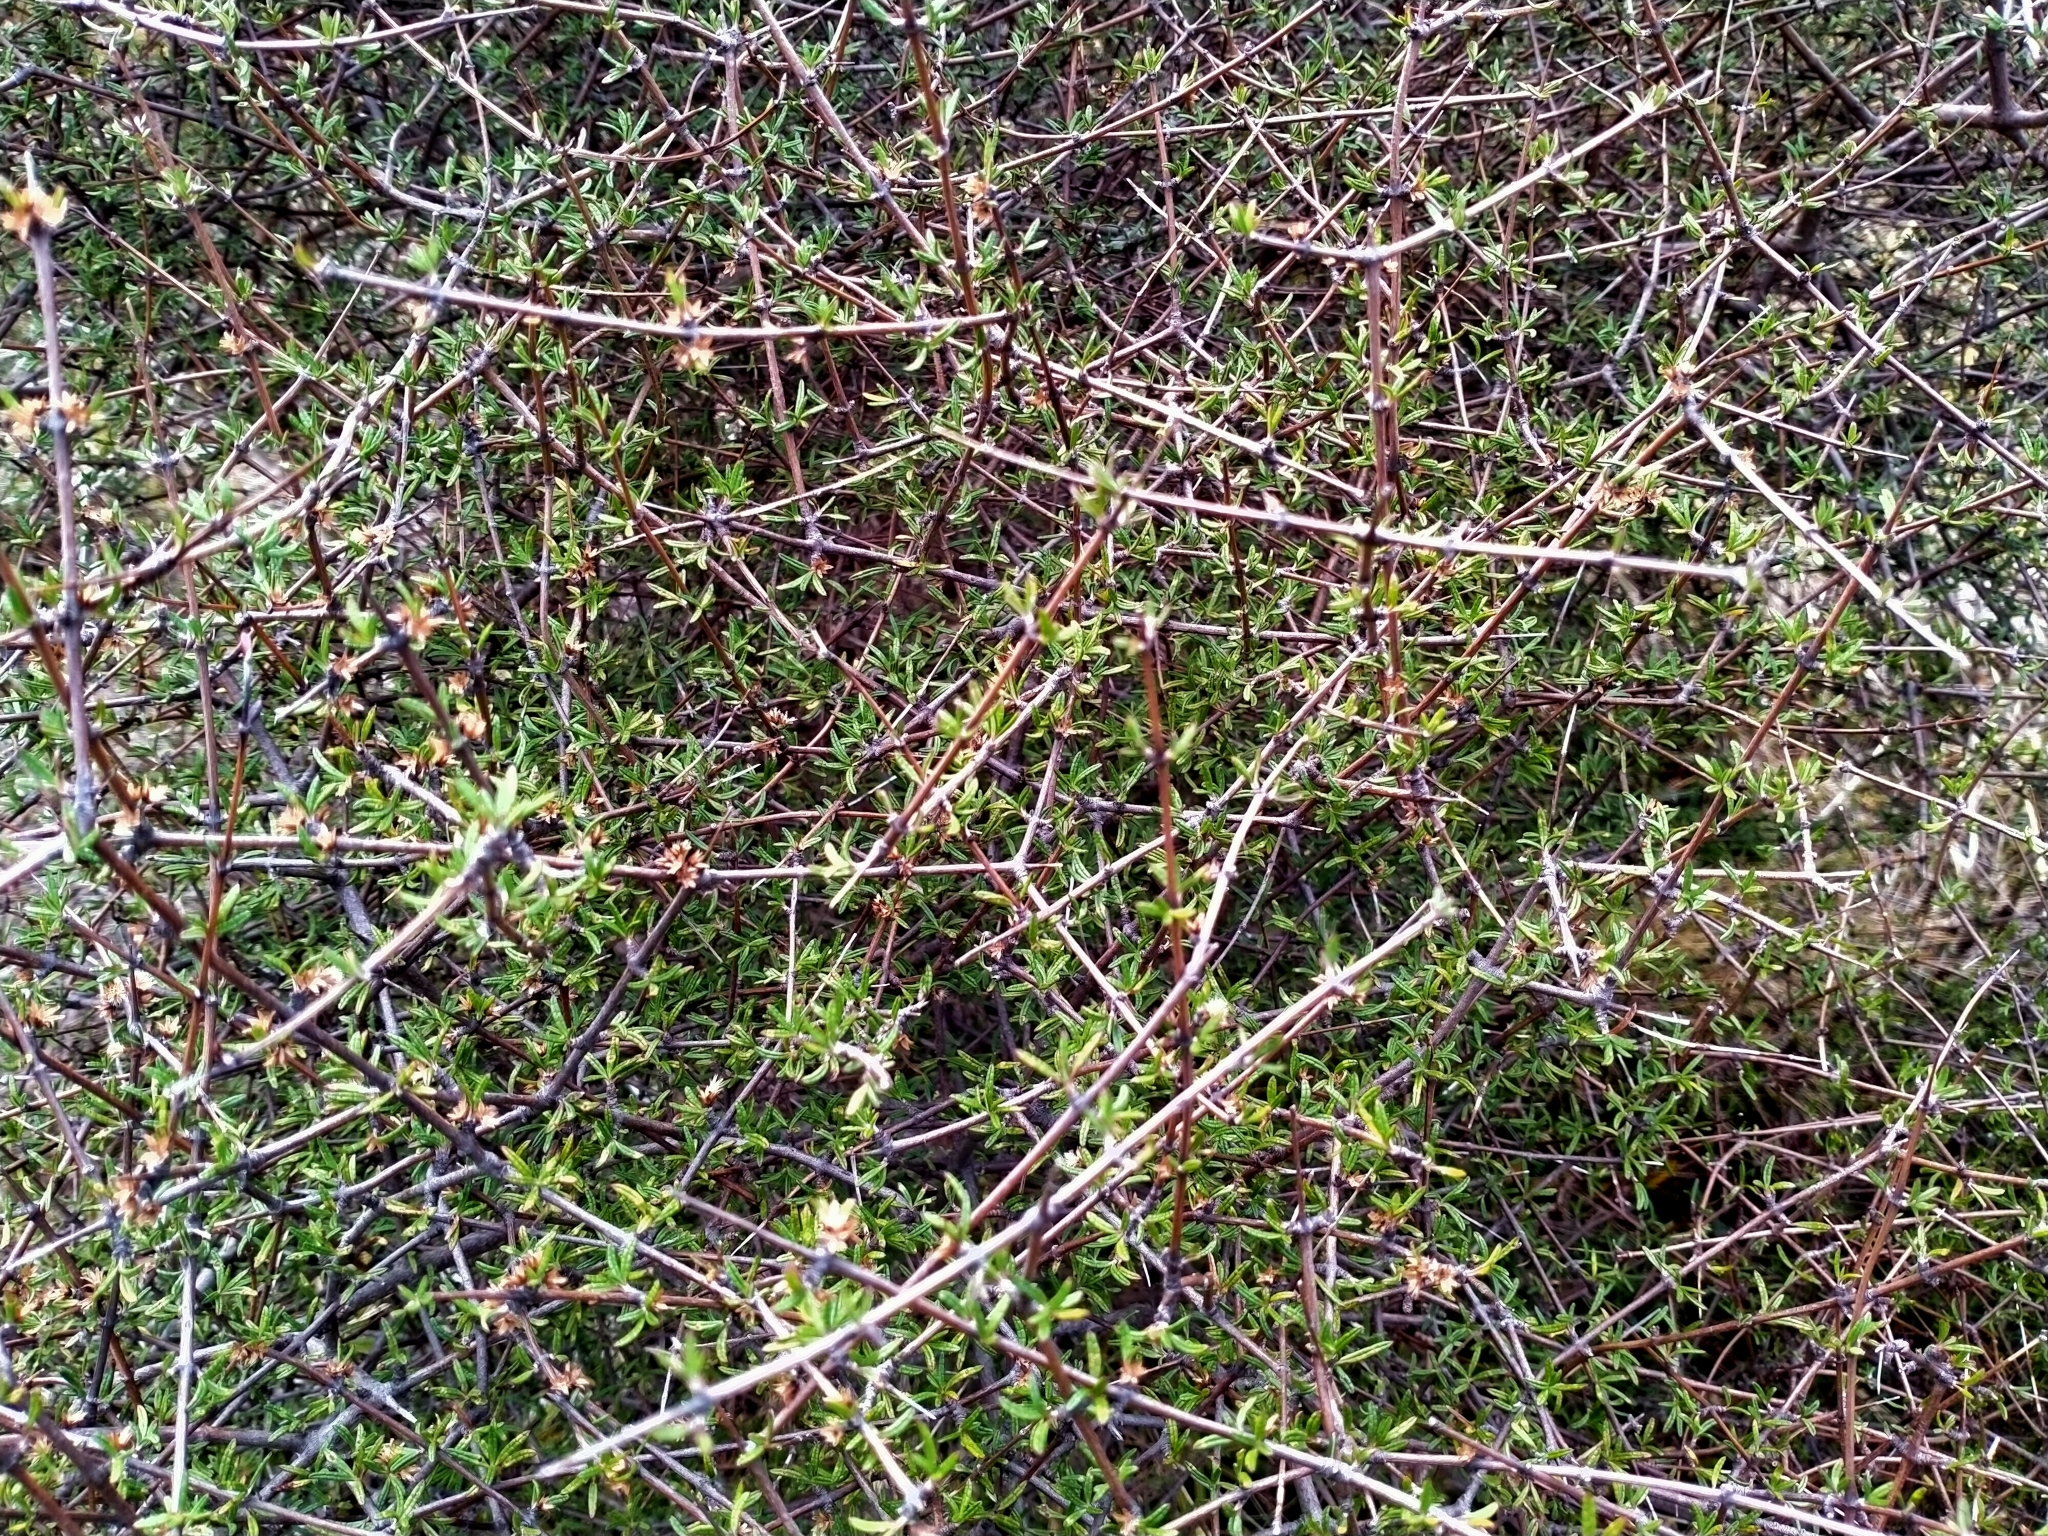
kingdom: Plantae
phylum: Tracheophyta
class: Magnoliopsida
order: Asterales
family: Asteraceae
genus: Olearia
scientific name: Olearia bullata
